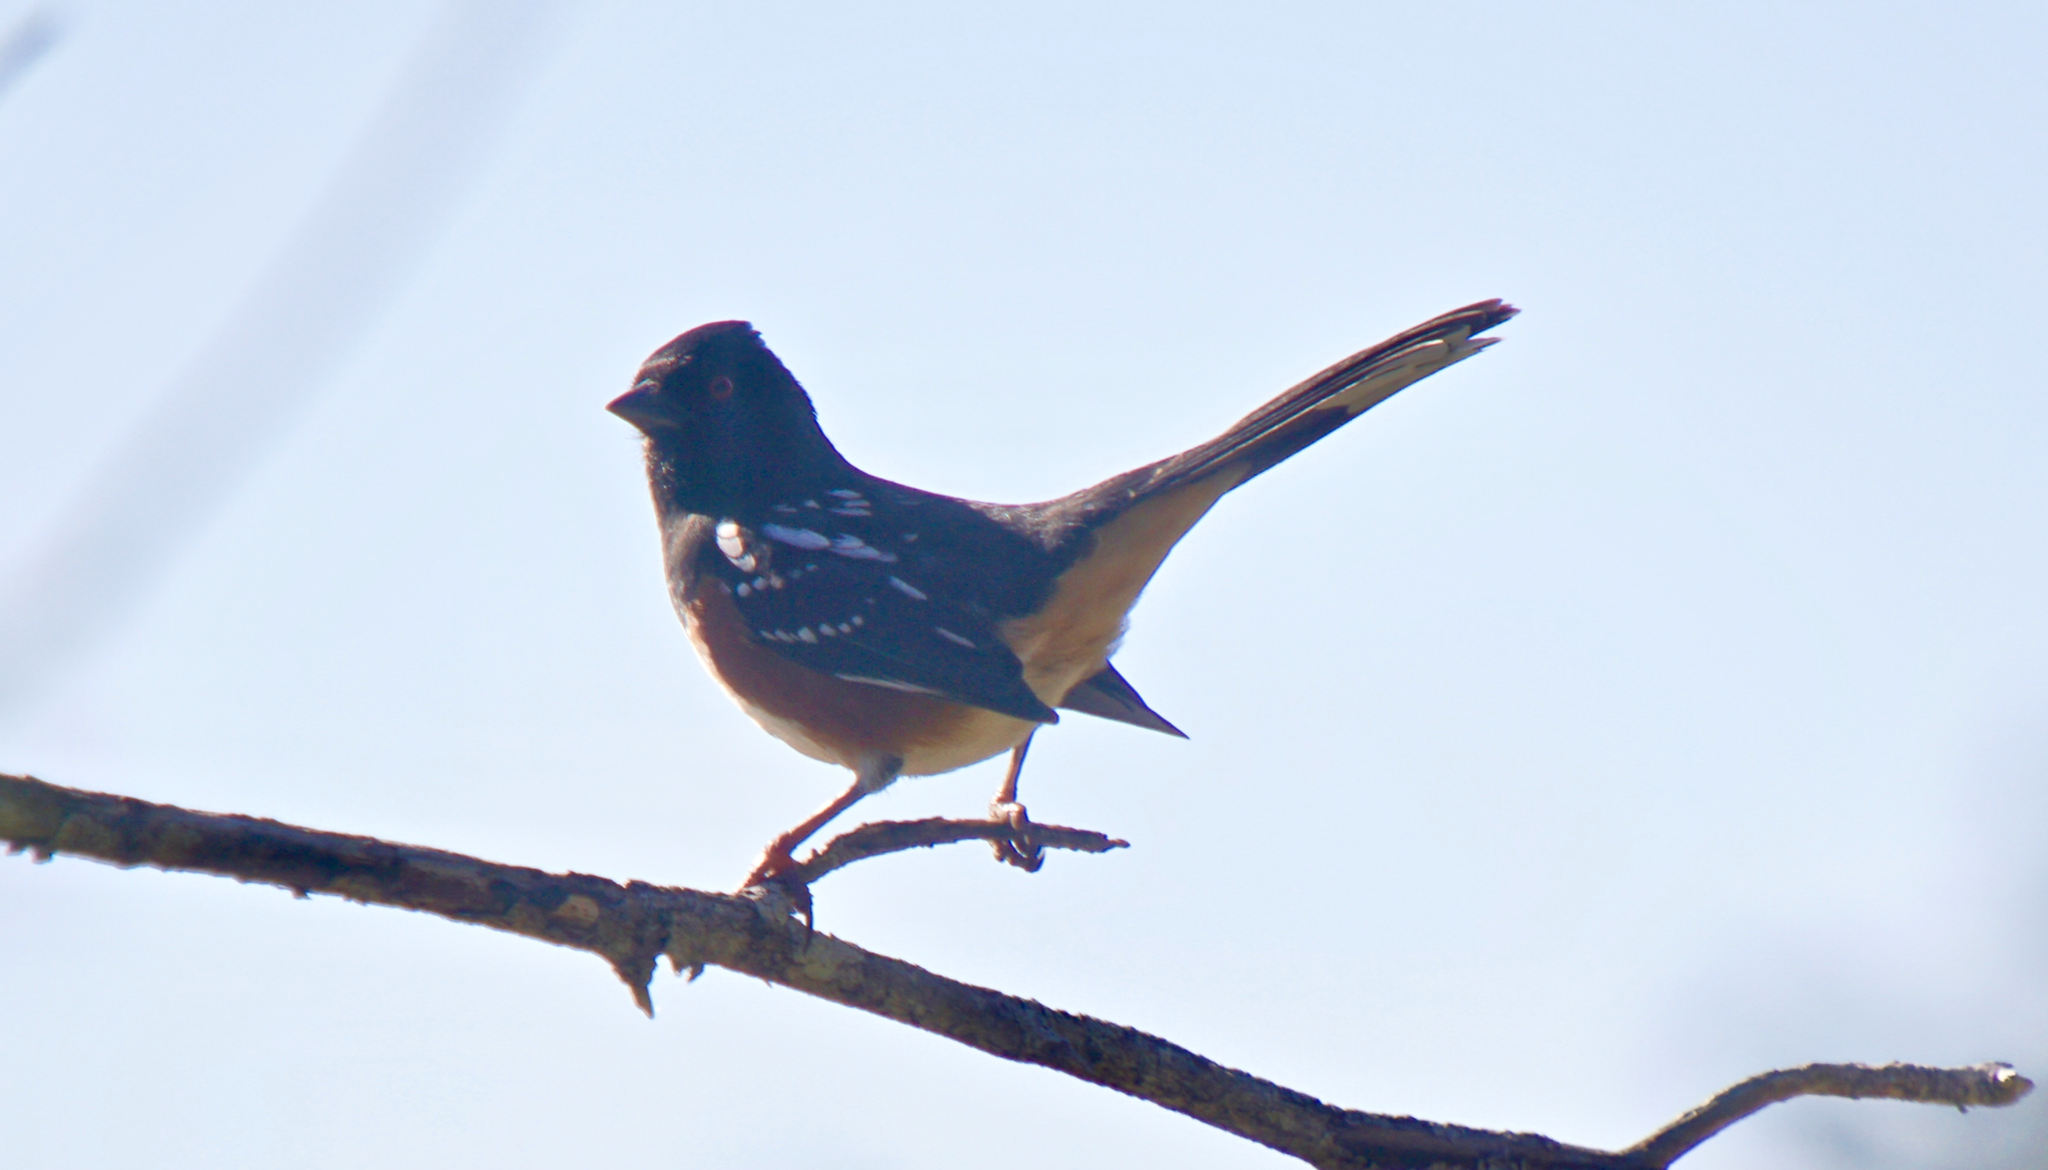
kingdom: Animalia
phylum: Chordata
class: Aves
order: Passeriformes
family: Passerellidae
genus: Pipilo
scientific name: Pipilo maculatus
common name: Spotted towhee
